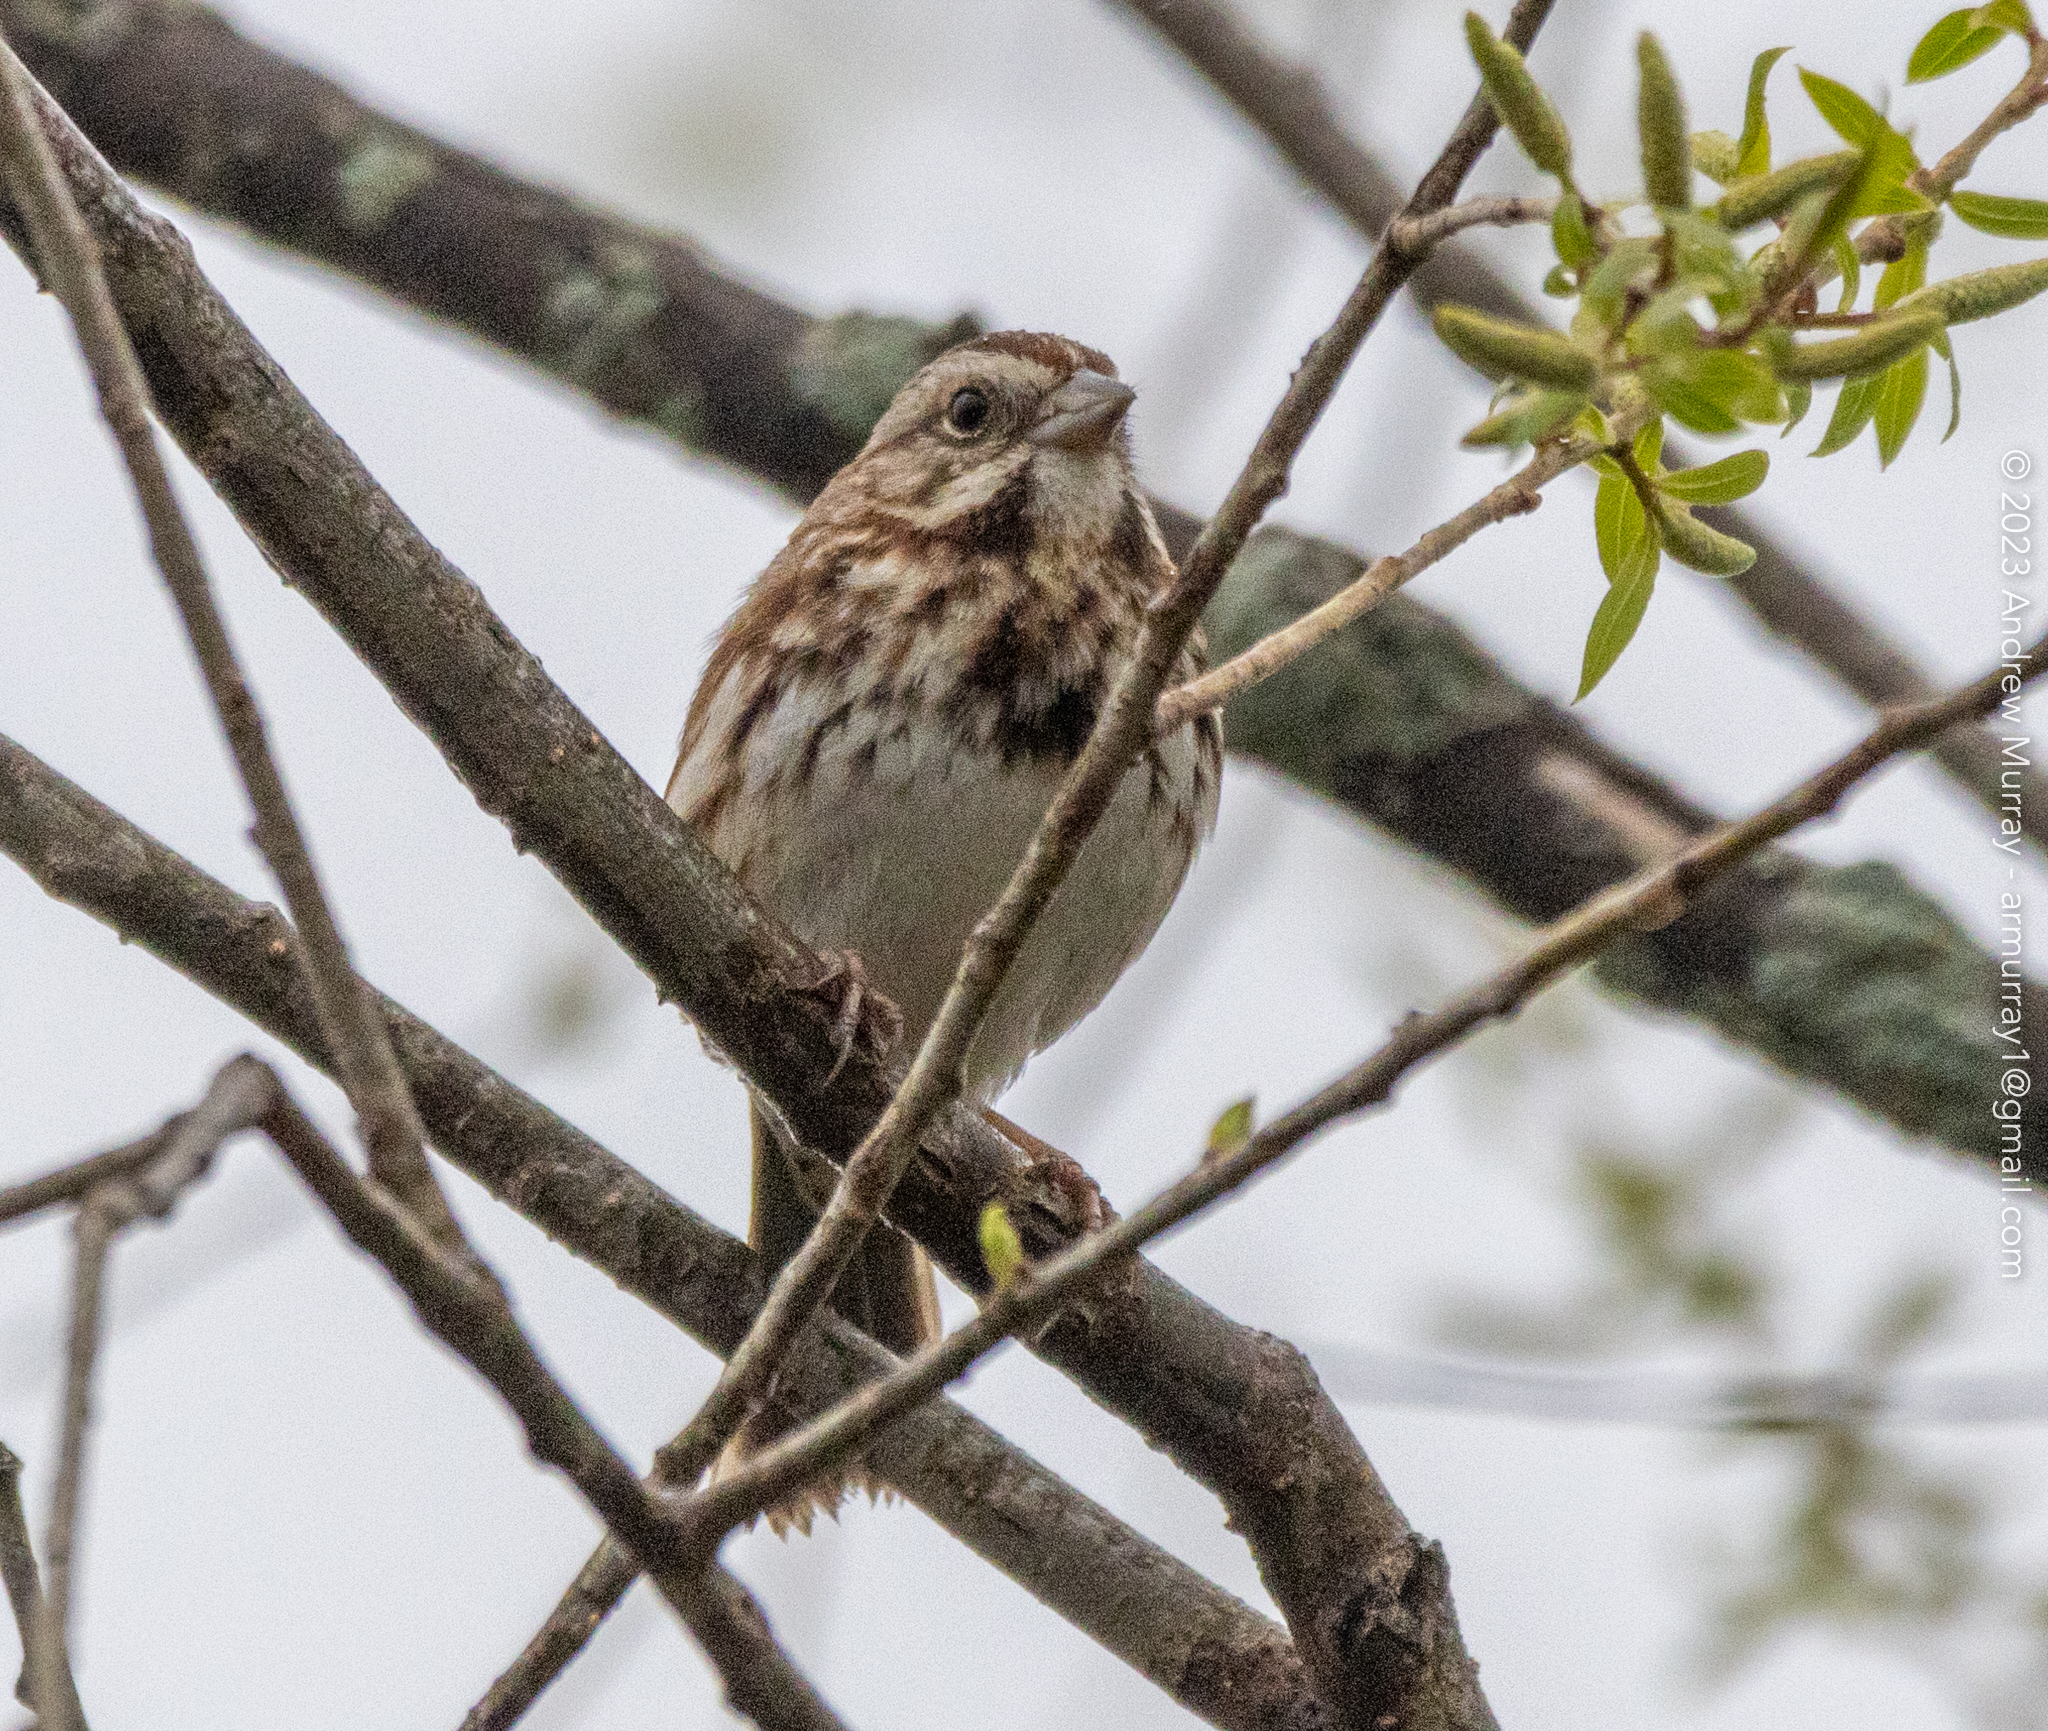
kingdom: Animalia
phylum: Chordata
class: Aves
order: Passeriformes
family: Passerellidae
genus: Melospiza
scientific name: Melospiza melodia
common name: Song sparrow
